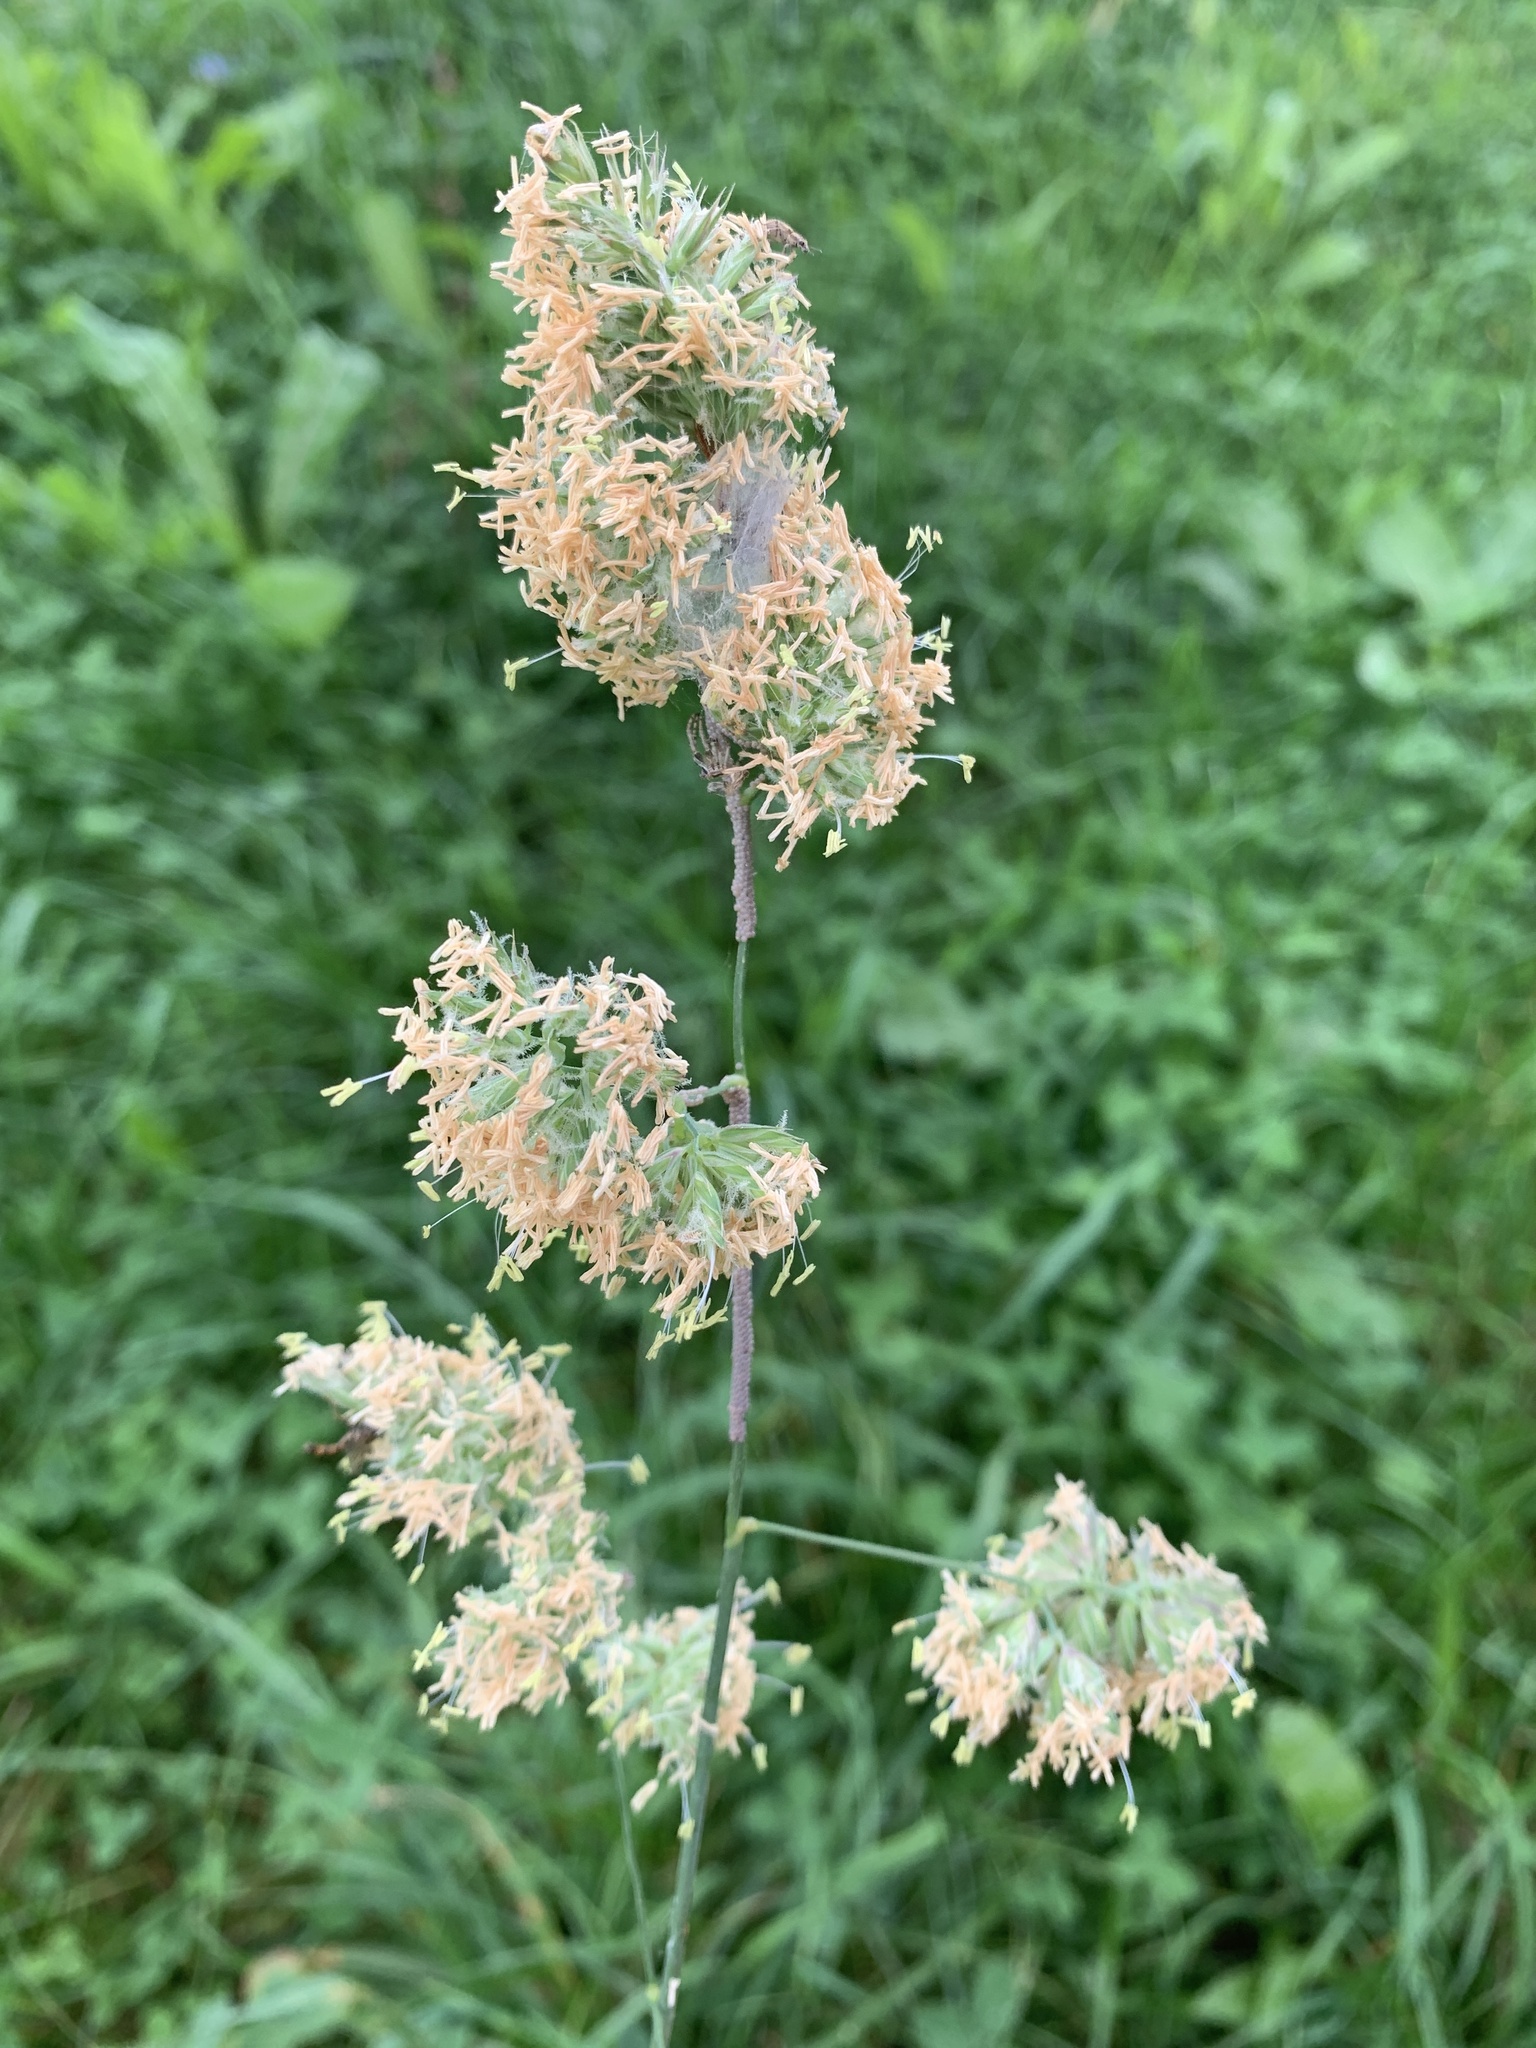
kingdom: Plantae
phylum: Tracheophyta
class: Liliopsida
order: Poales
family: Poaceae
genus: Dactylis
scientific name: Dactylis glomerata
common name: Orchardgrass
